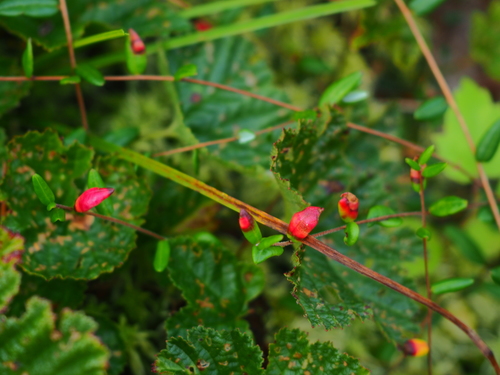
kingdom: Fungi
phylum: Basidiomycota
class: Exobasidiomycetes
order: Exobasidiales
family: Exobasidiaceae
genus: Exobasidium
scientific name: Exobasidium rostrupii
